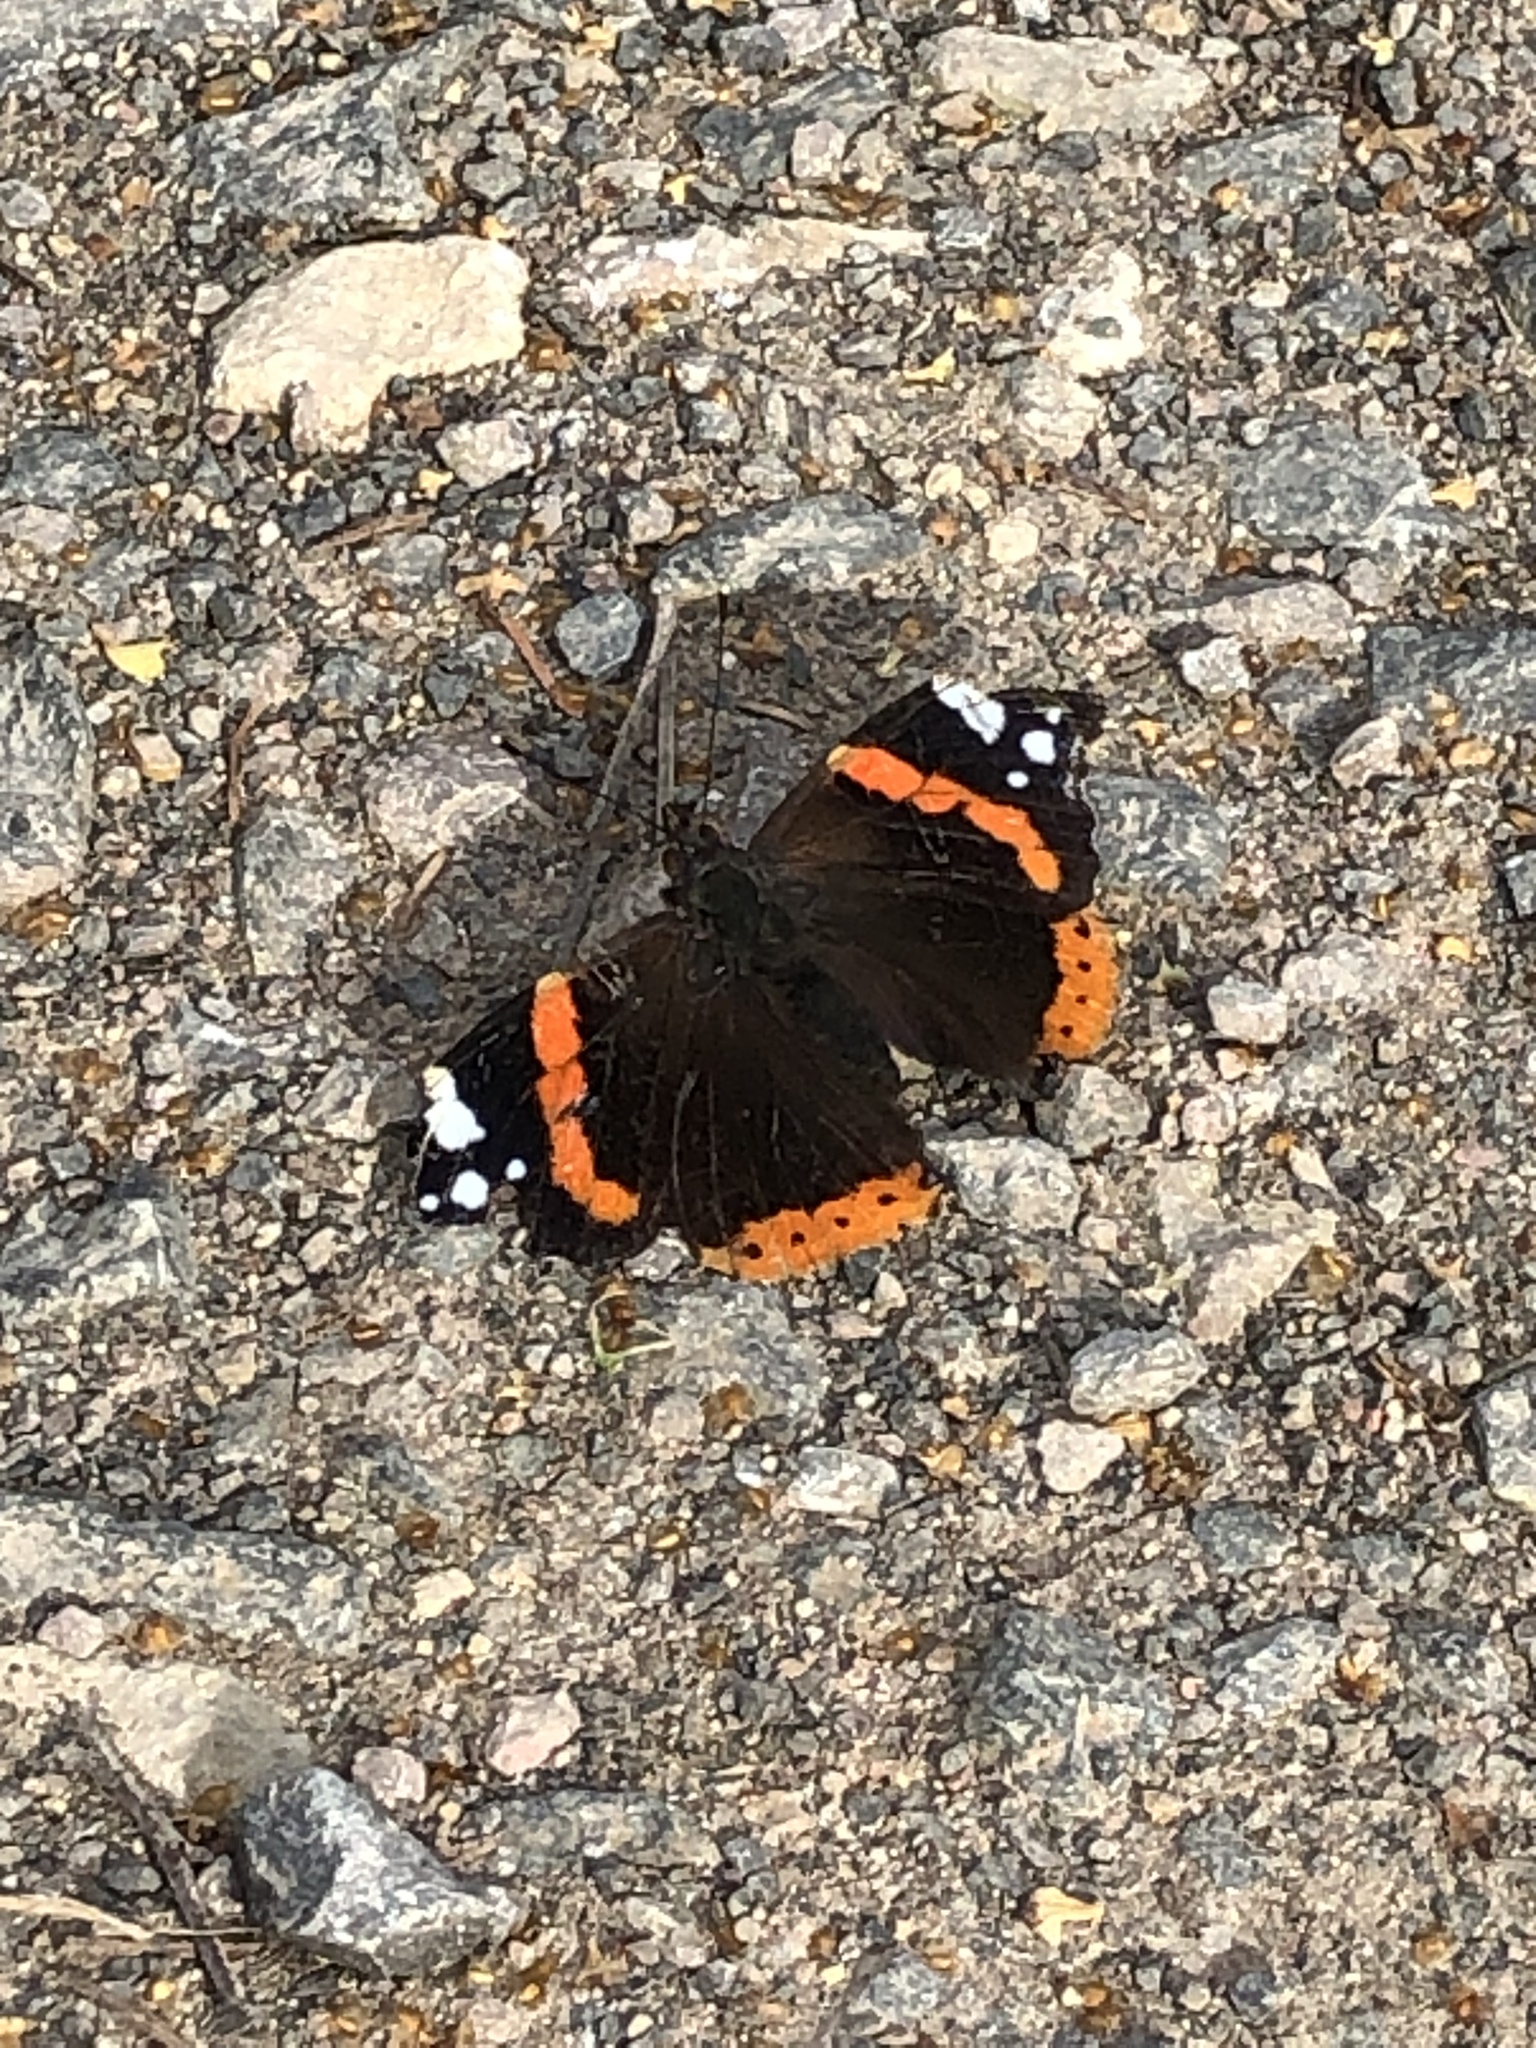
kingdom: Animalia
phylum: Arthropoda
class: Insecta
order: Lepidoptera
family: Nymphalidae
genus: Vanessa
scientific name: Vanessa atalanta
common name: Red admiral
